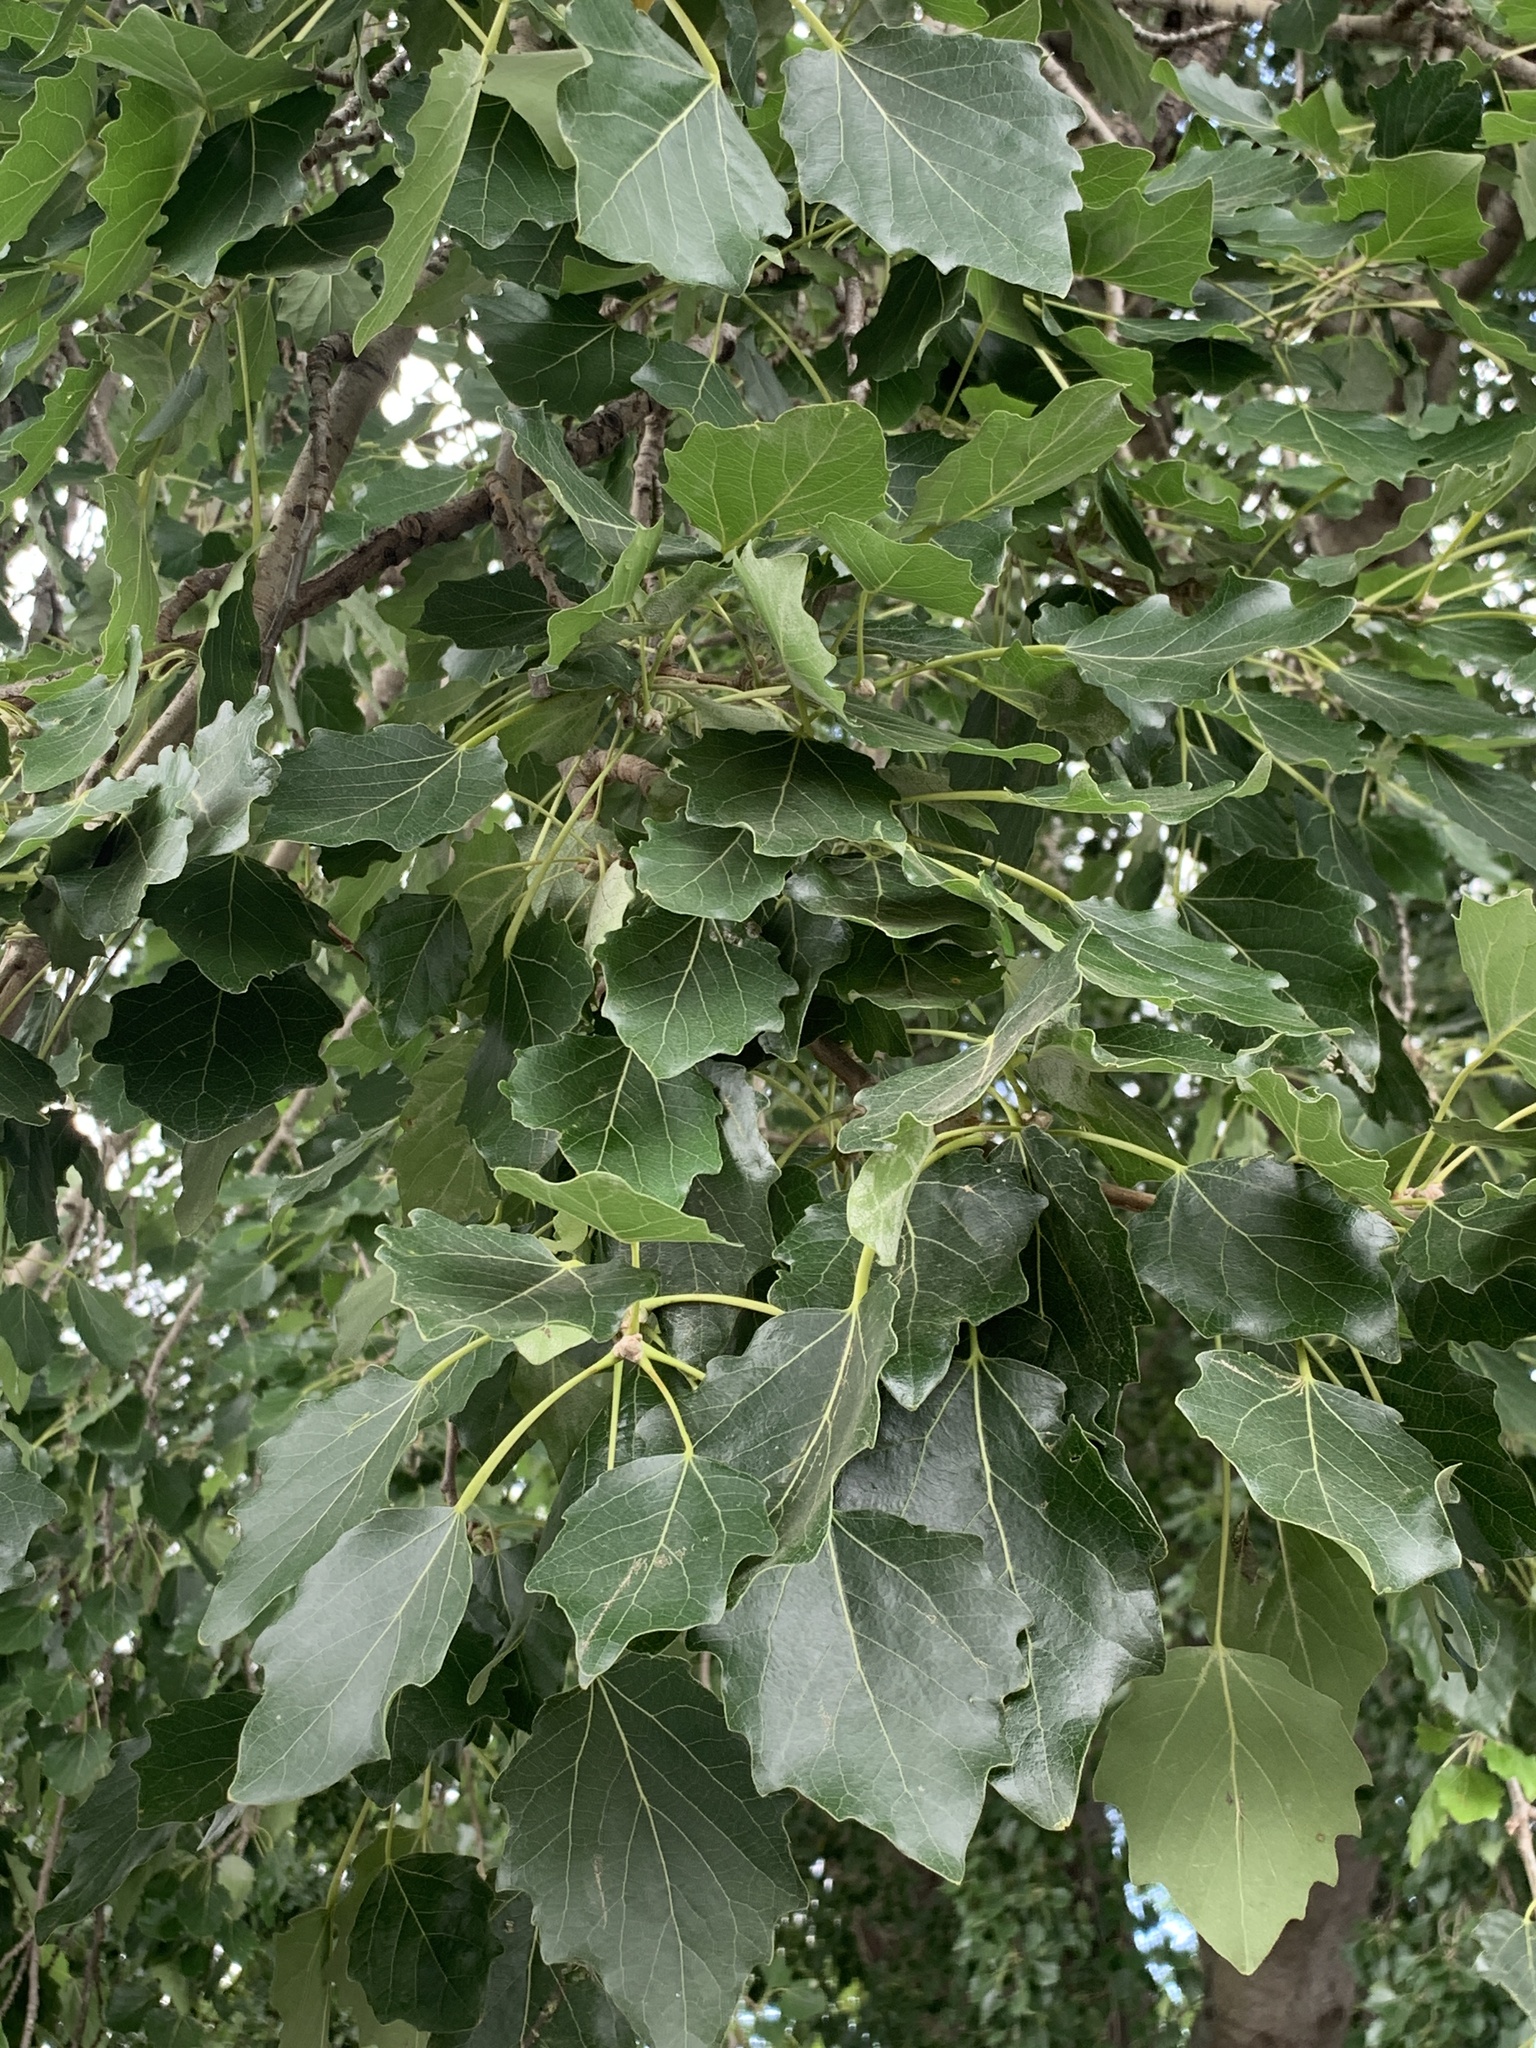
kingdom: Plantae
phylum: Tracheophyta
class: Magnoliopsida
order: Malpighiales
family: Salicaceae
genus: Populus
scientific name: Populus canescens
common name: Gray poplar
